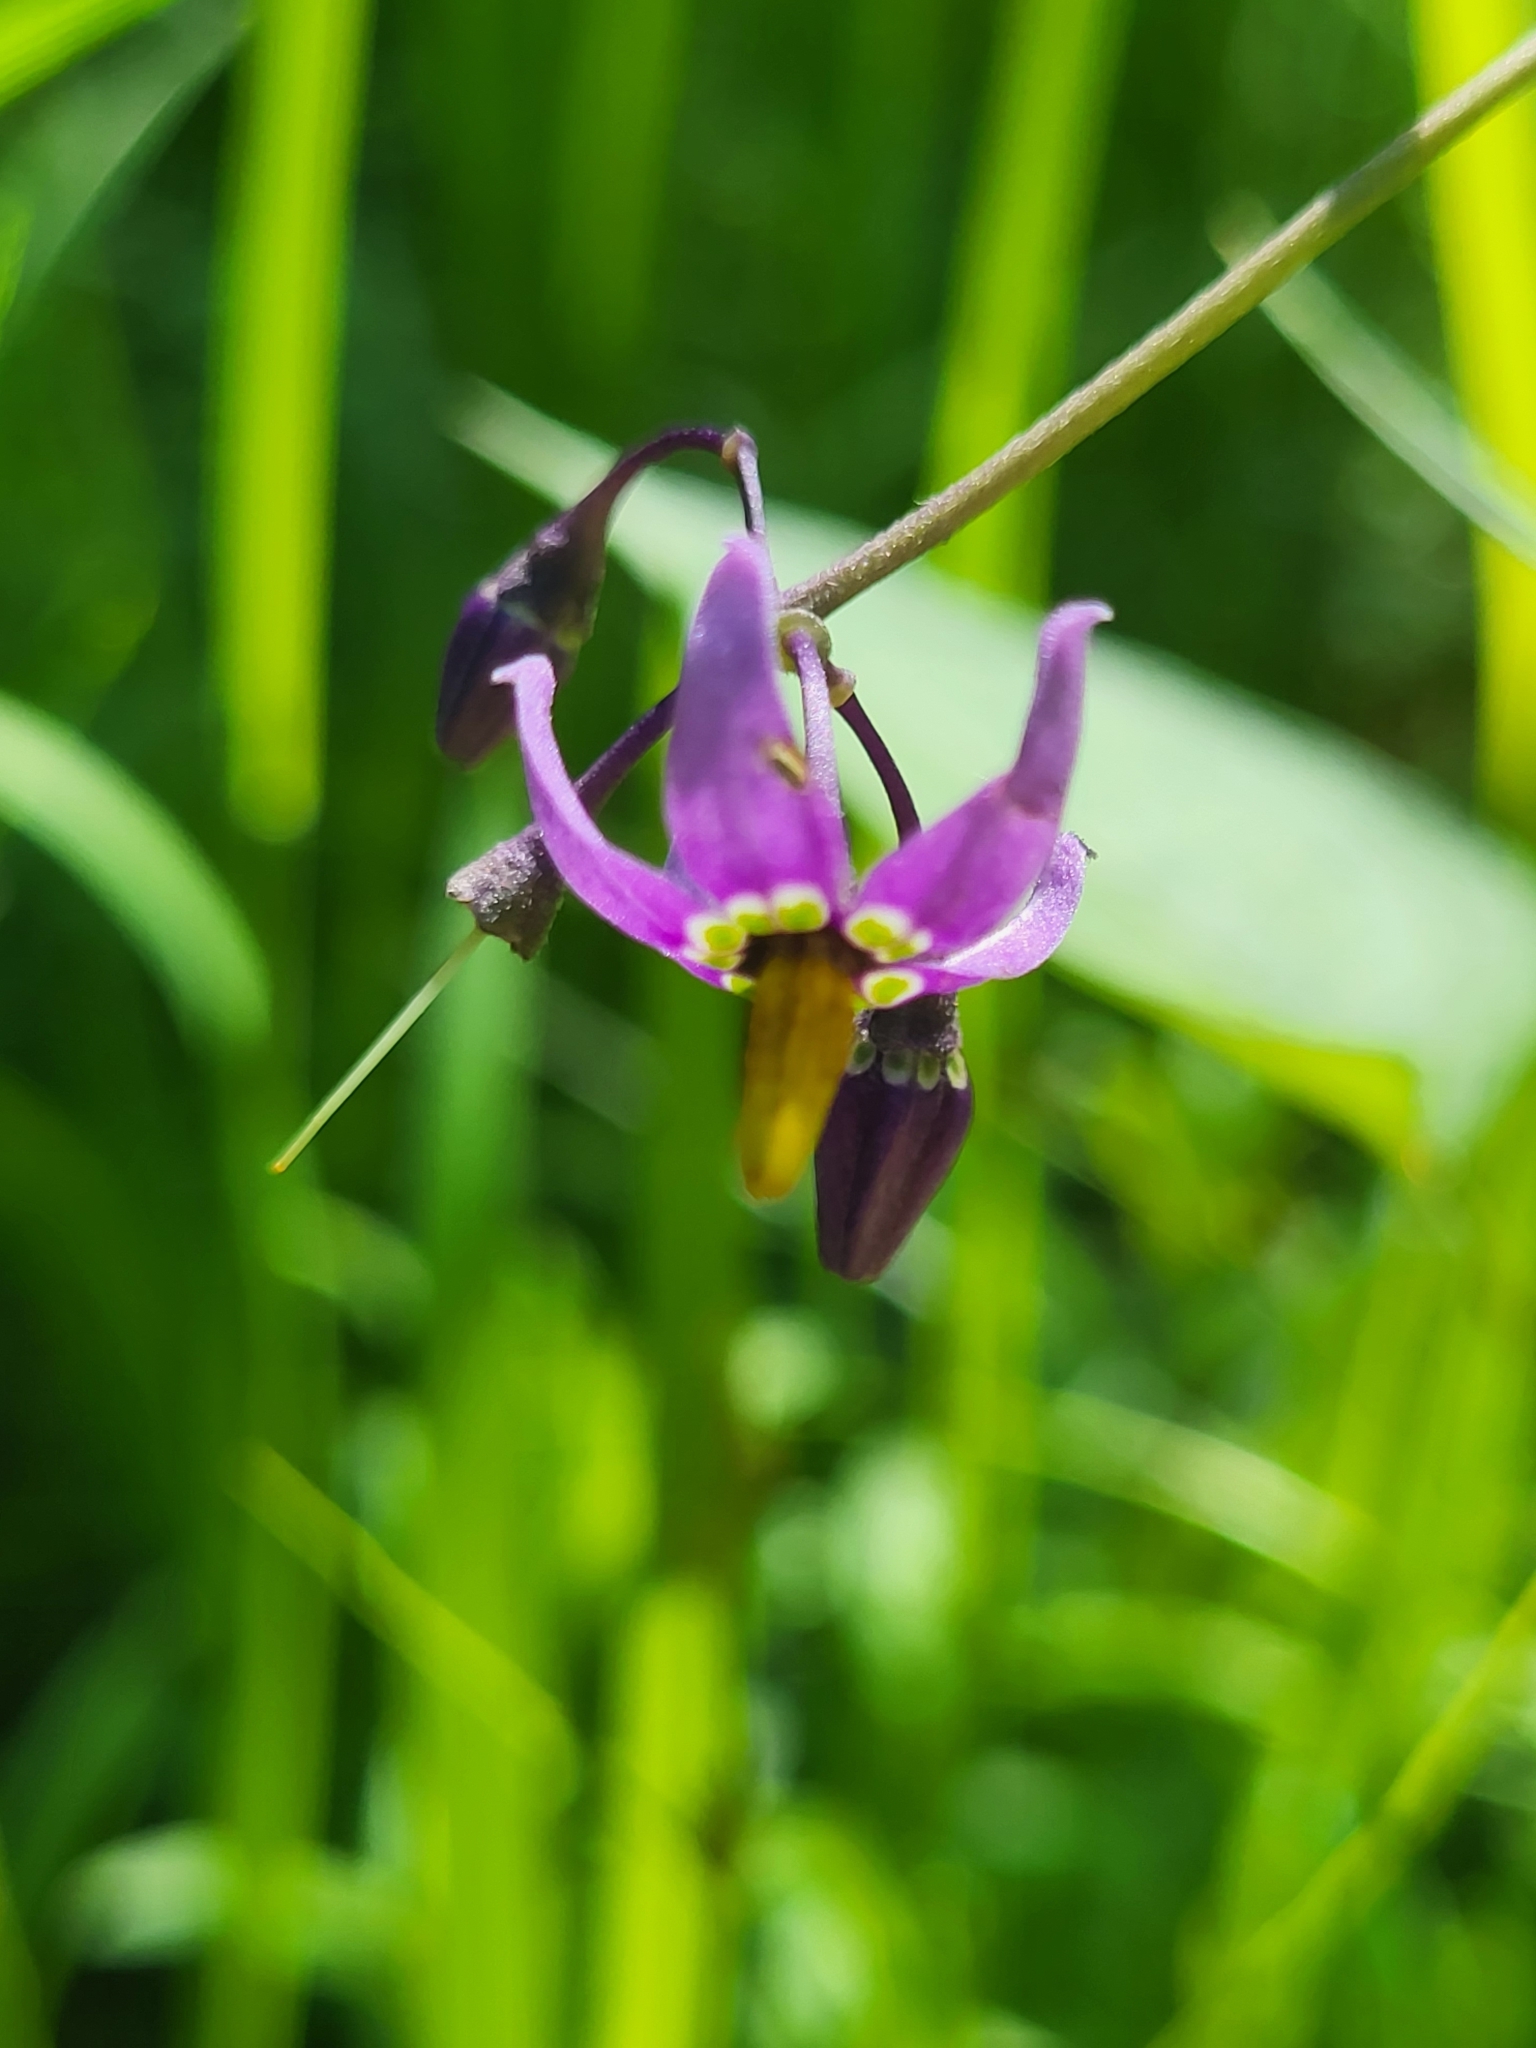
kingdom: Plantae
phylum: Tracheophyta
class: Magnoliopsida
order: Solanales
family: Solanaceae
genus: Solanum
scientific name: Solanum dulcamara
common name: Climbing nightshade
